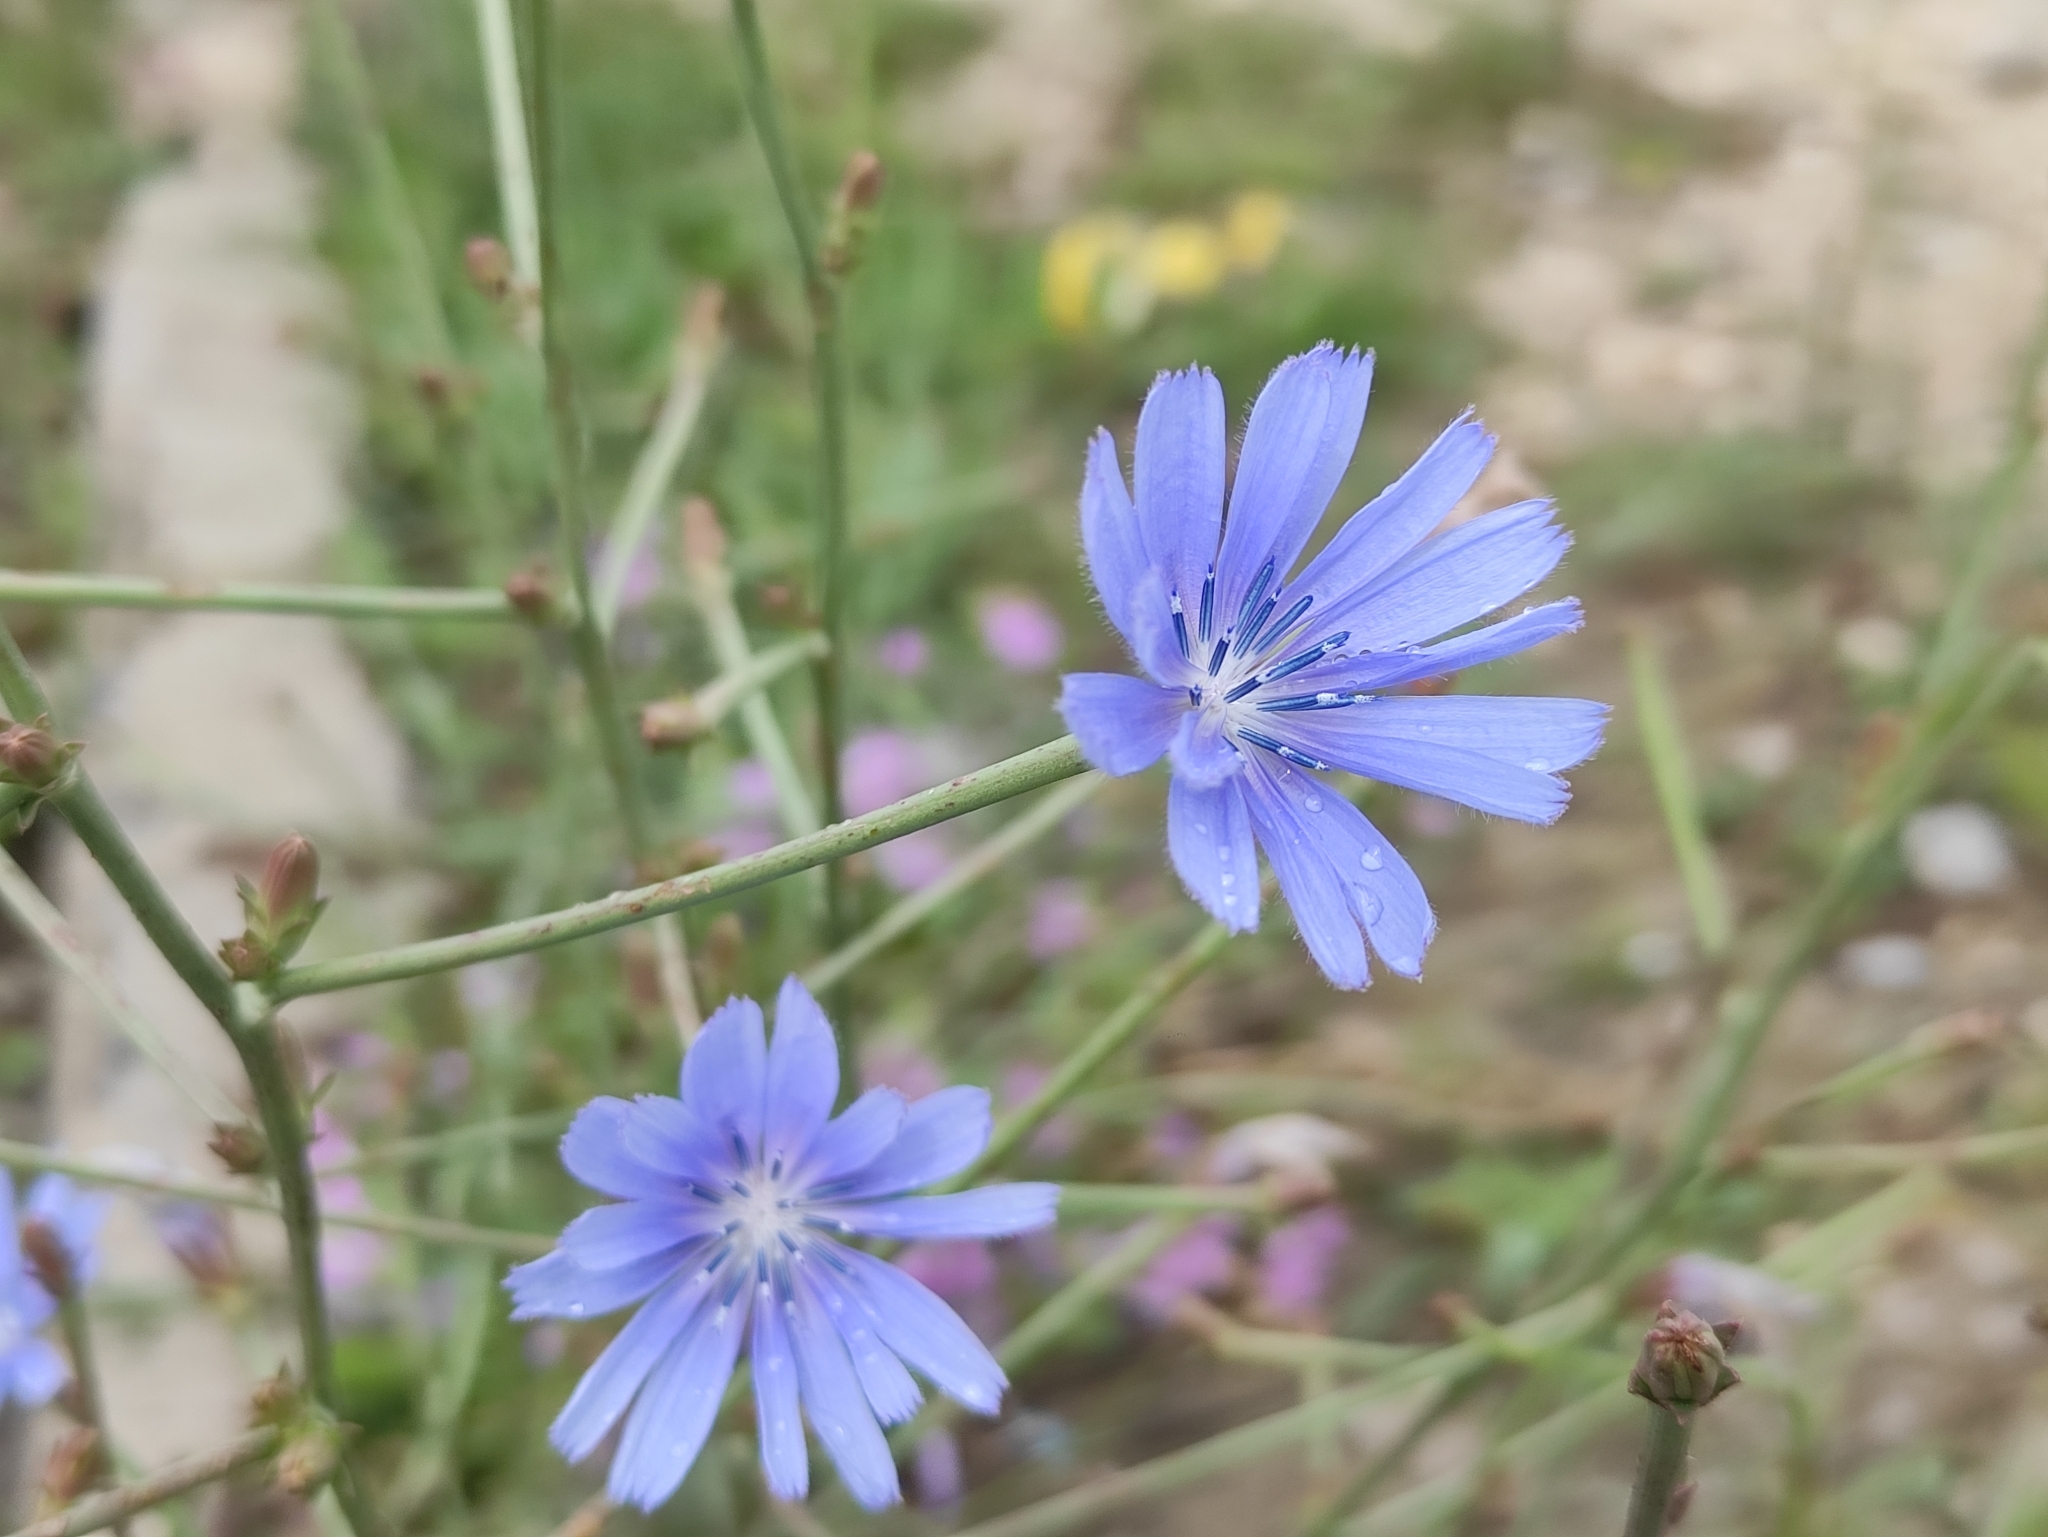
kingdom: Plantae
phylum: Tracheophyta
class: Magnoliopsida
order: Asterales
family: Asteraceae
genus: Cichorium
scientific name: Cichorium intybus
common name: Chicory
